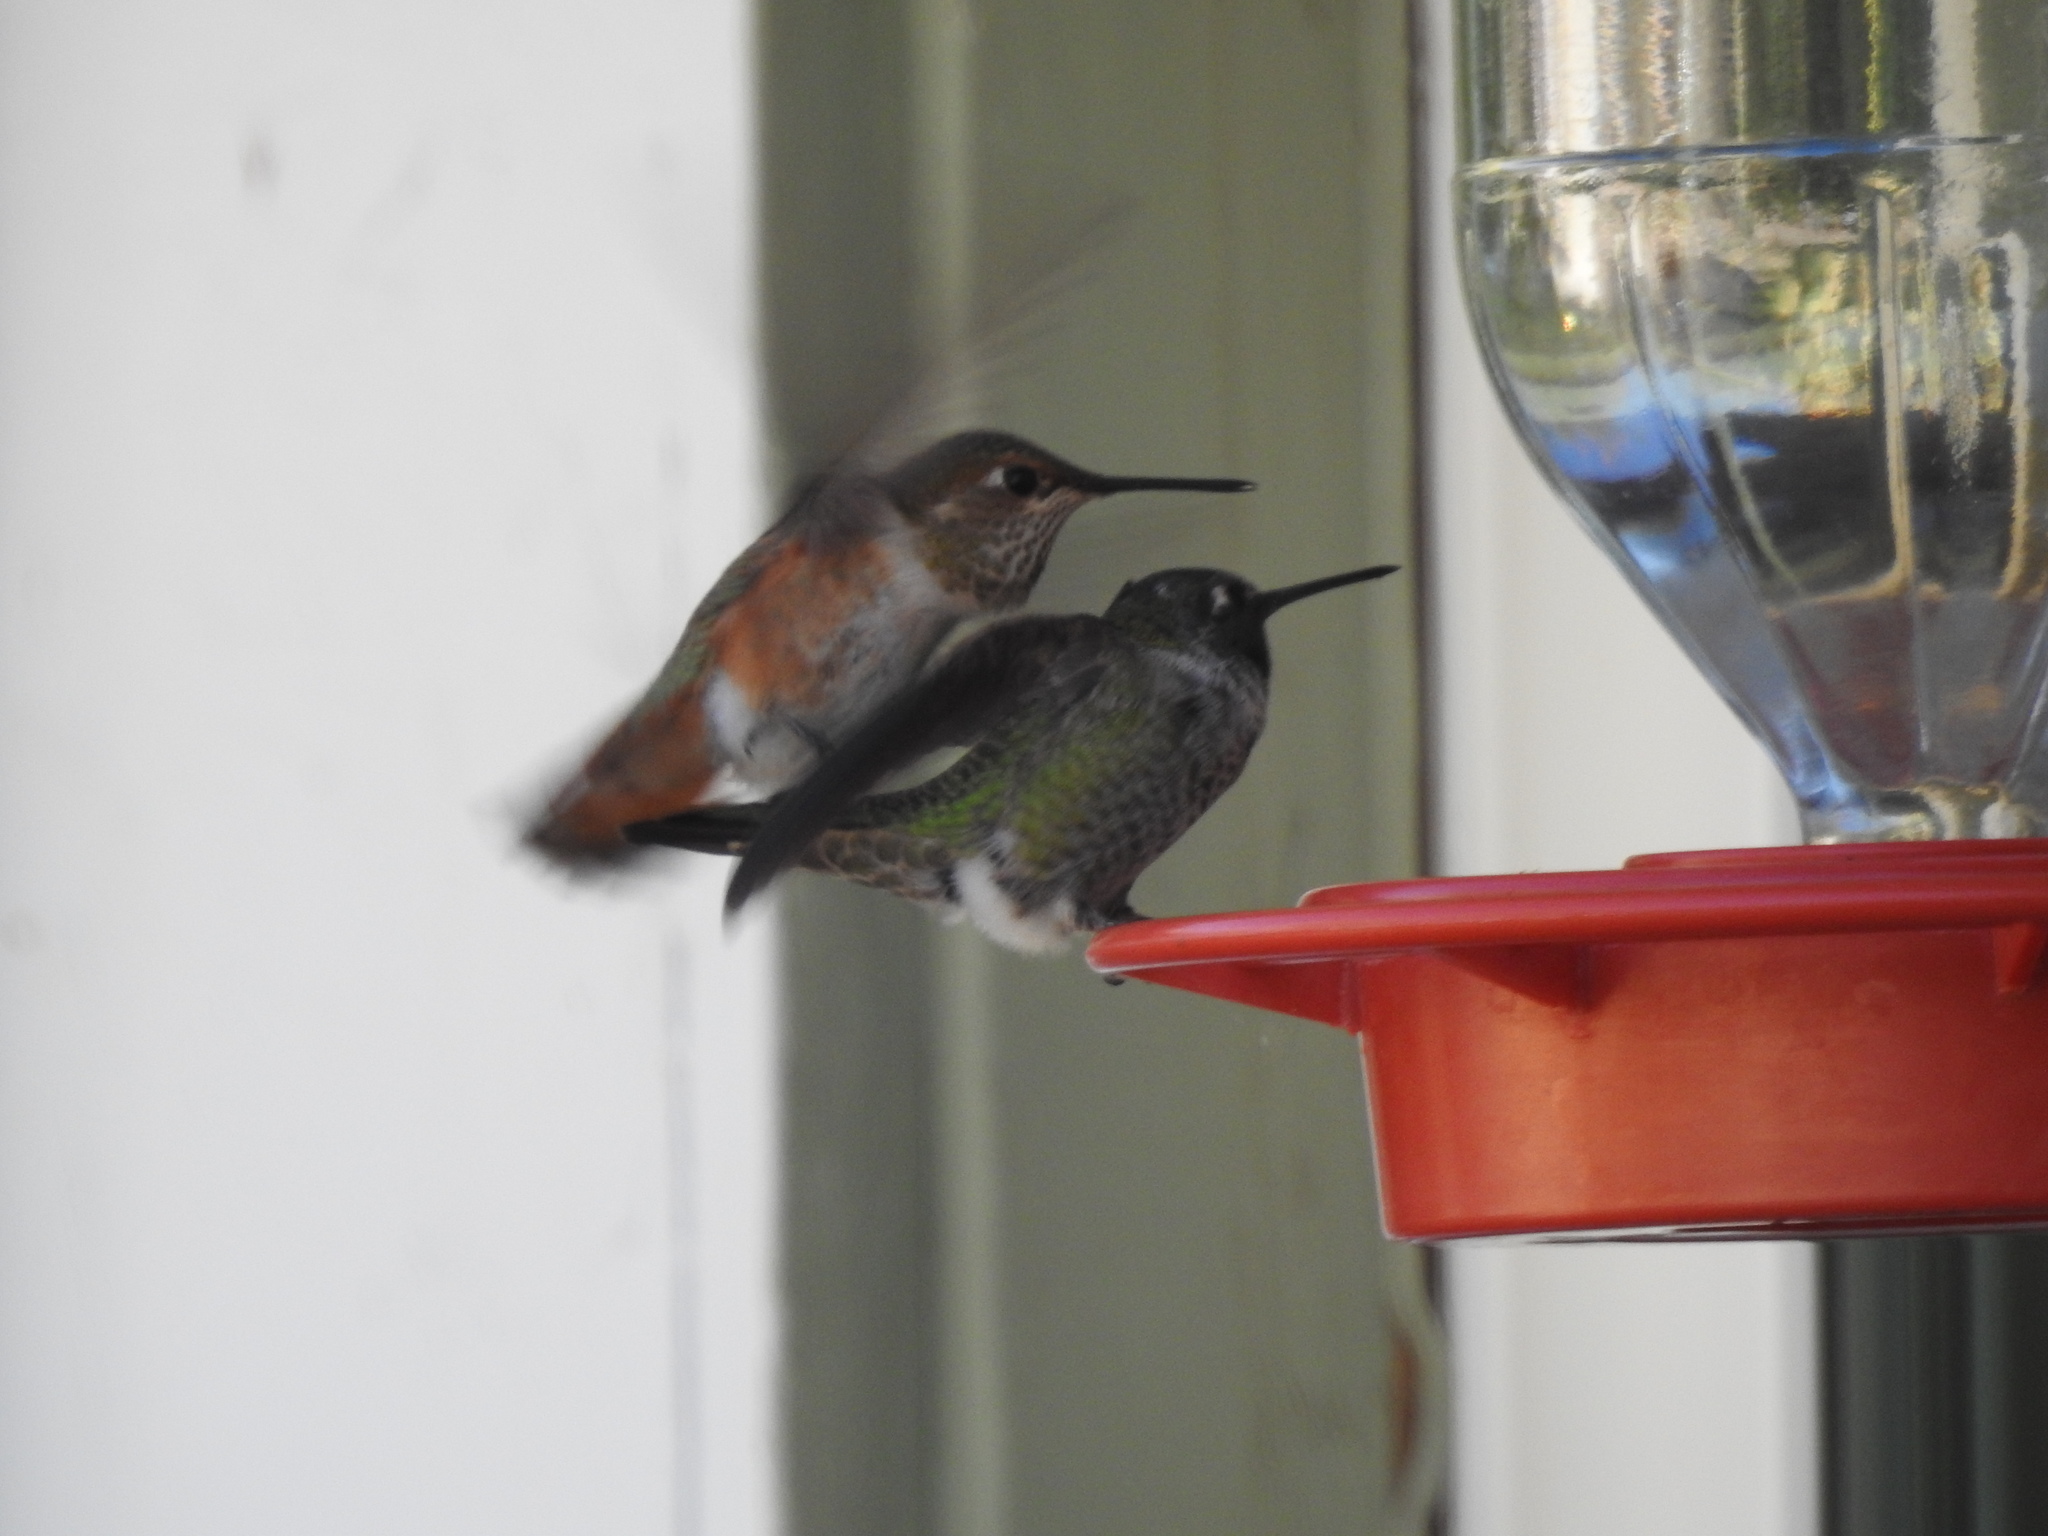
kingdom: Animalia
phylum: Chordata
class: Aves
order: Apodiformes
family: Trochilidae
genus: Selasphorus
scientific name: Selasphorus rufus
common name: Rufous hummingbird
